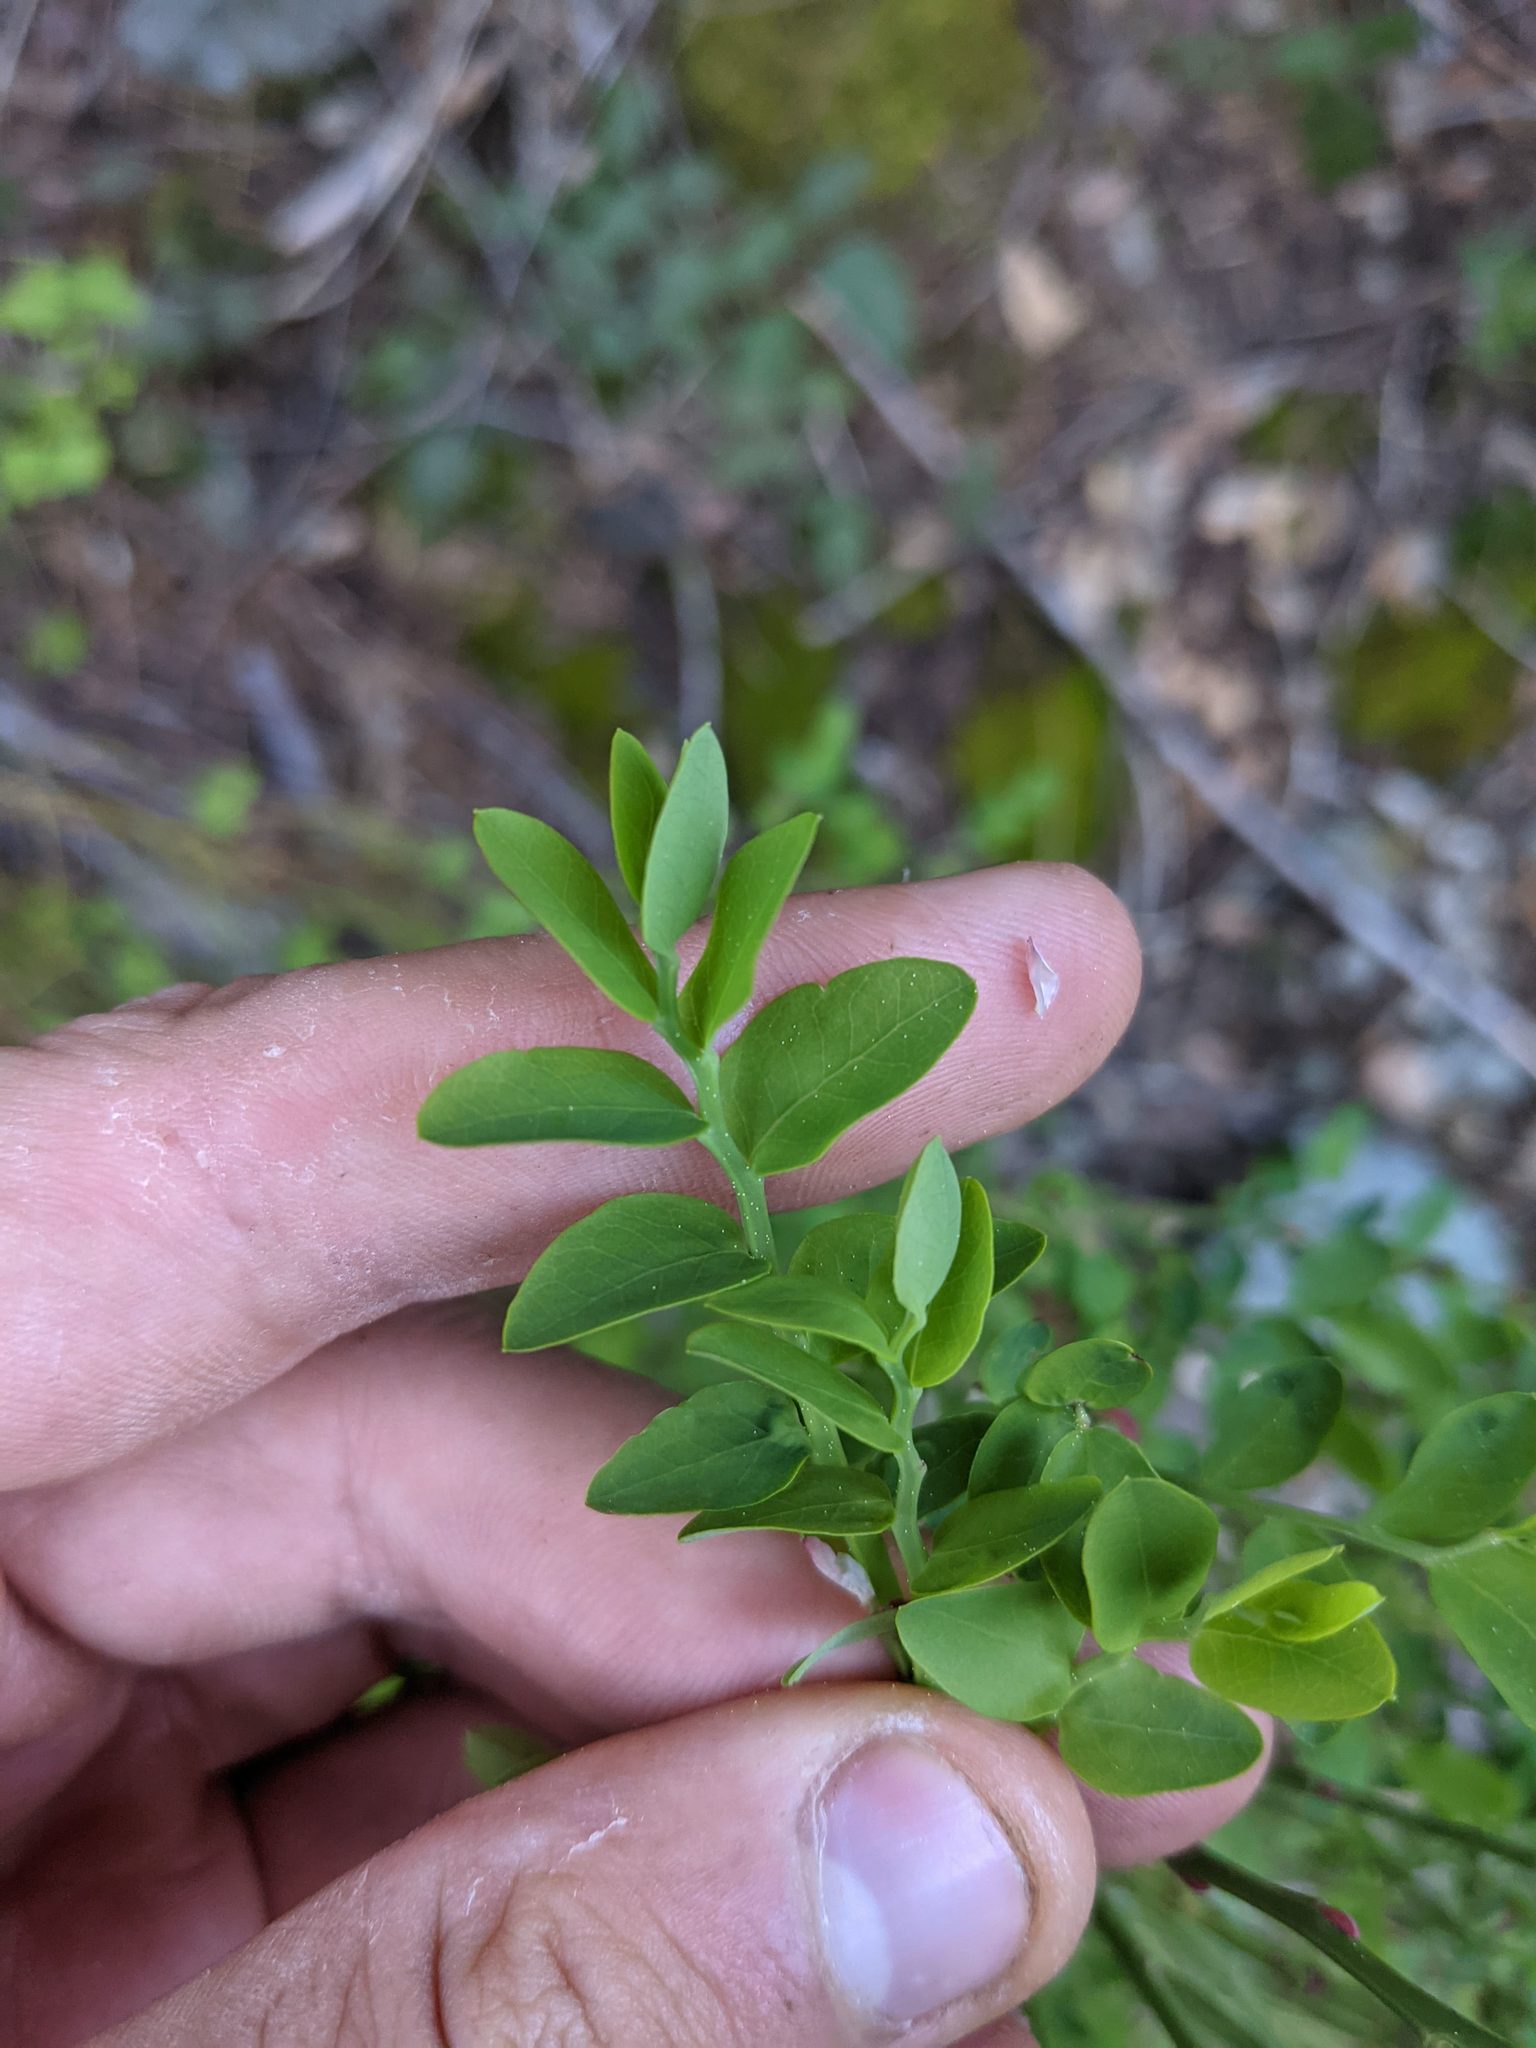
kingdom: Plantae
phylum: Tracheophyta
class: Magnoliopsida
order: Ericales
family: Ericaceae
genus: Vaccinium
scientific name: Vaccinium parvifolium
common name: Red-huckleberry
